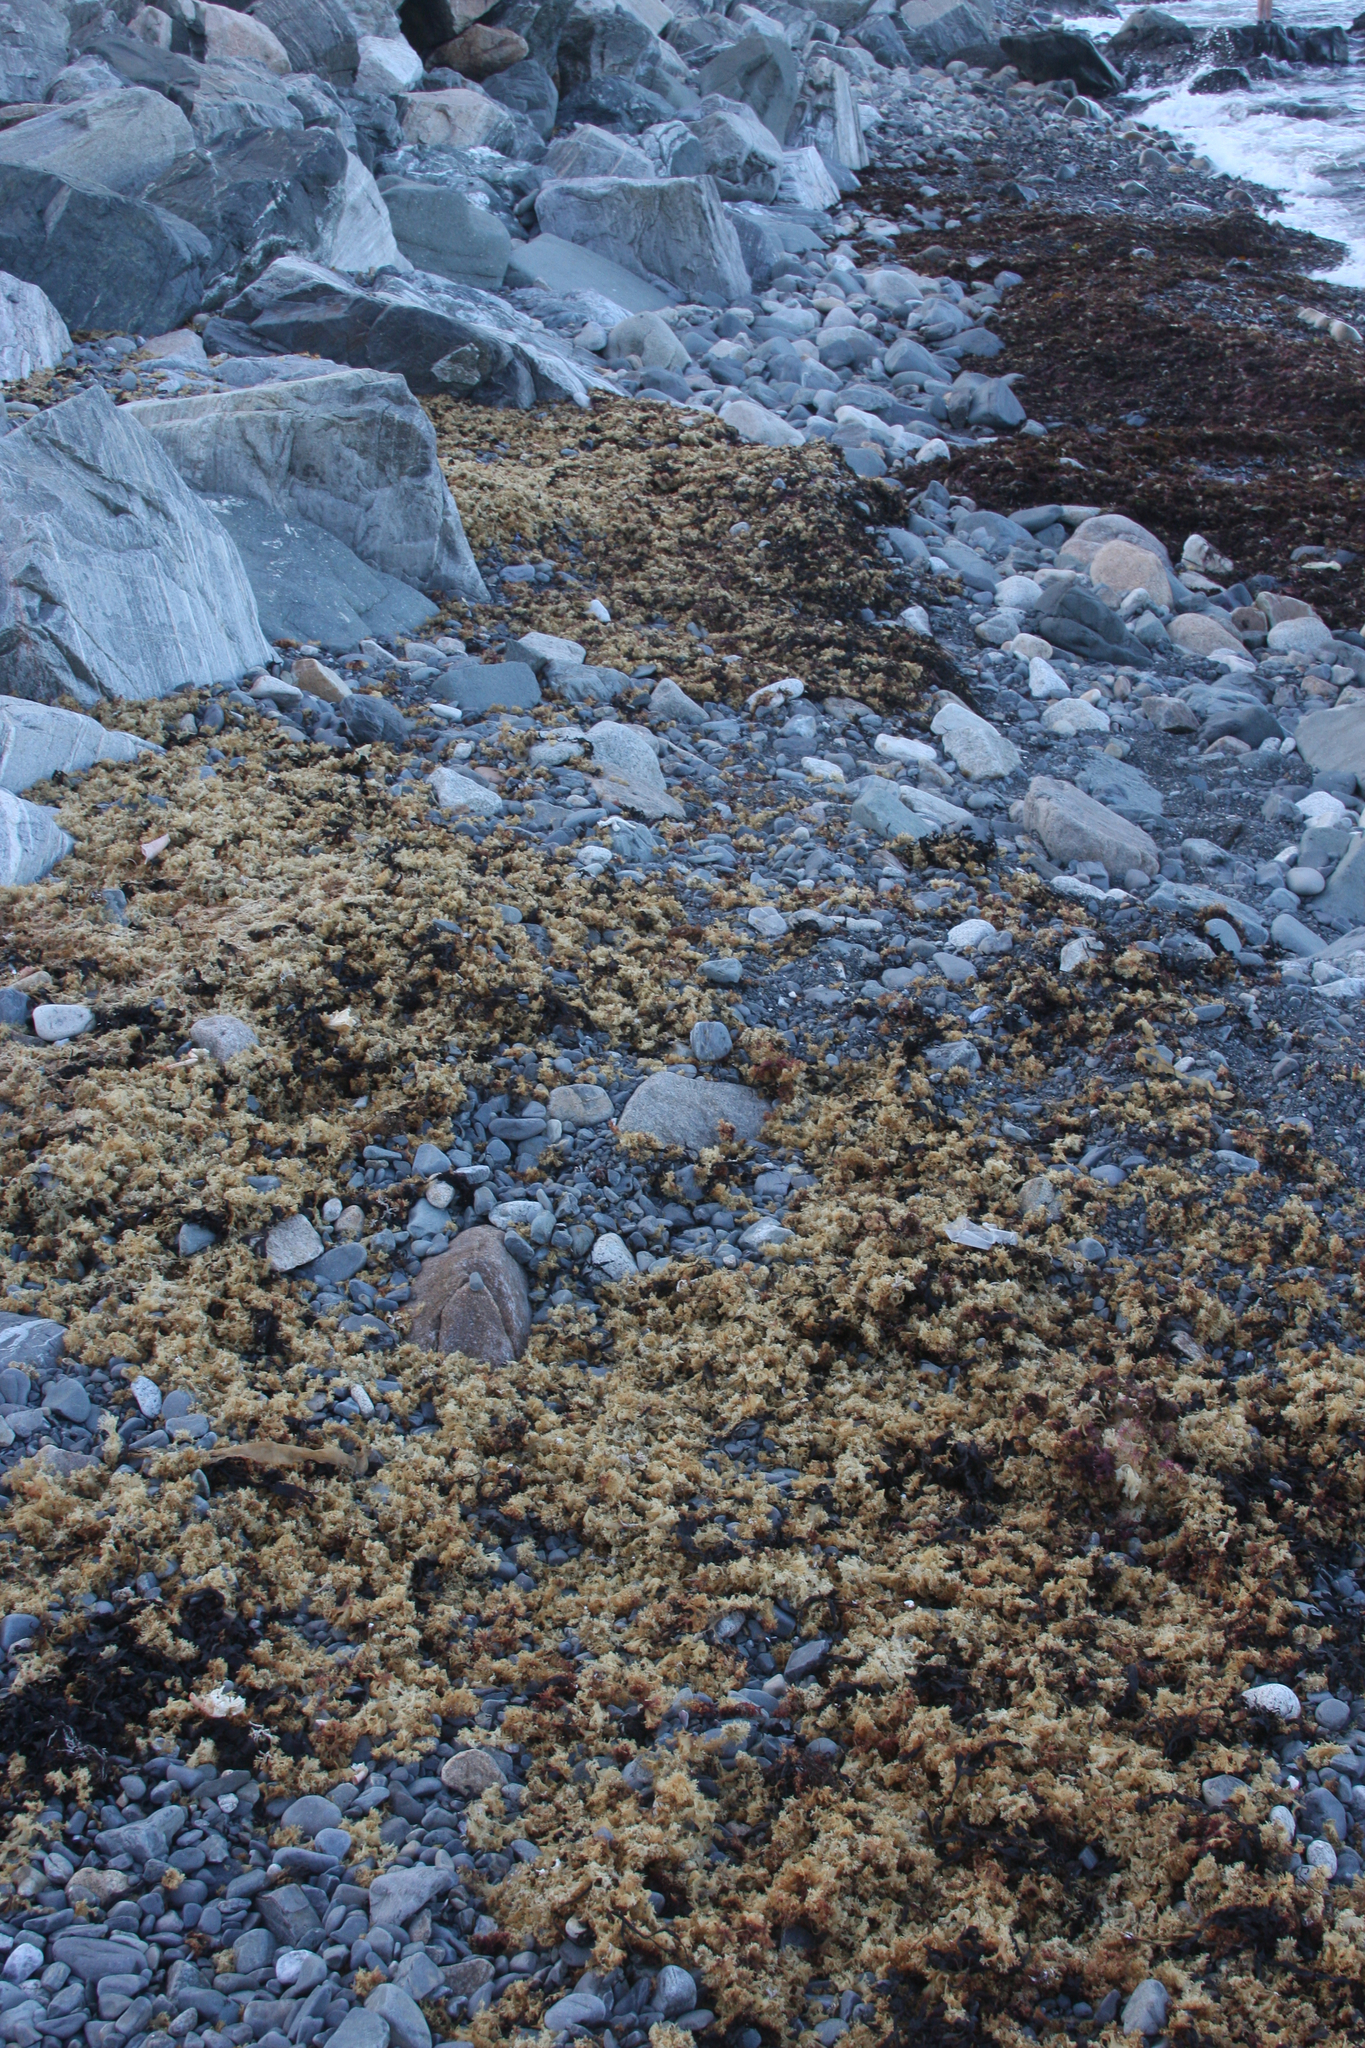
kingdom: Plantae
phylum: Rhodophyta
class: Florideophyceae
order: Gigartinales
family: Gigartinaceae
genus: Chondrus
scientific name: Chondrus crispus
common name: Carrageen
